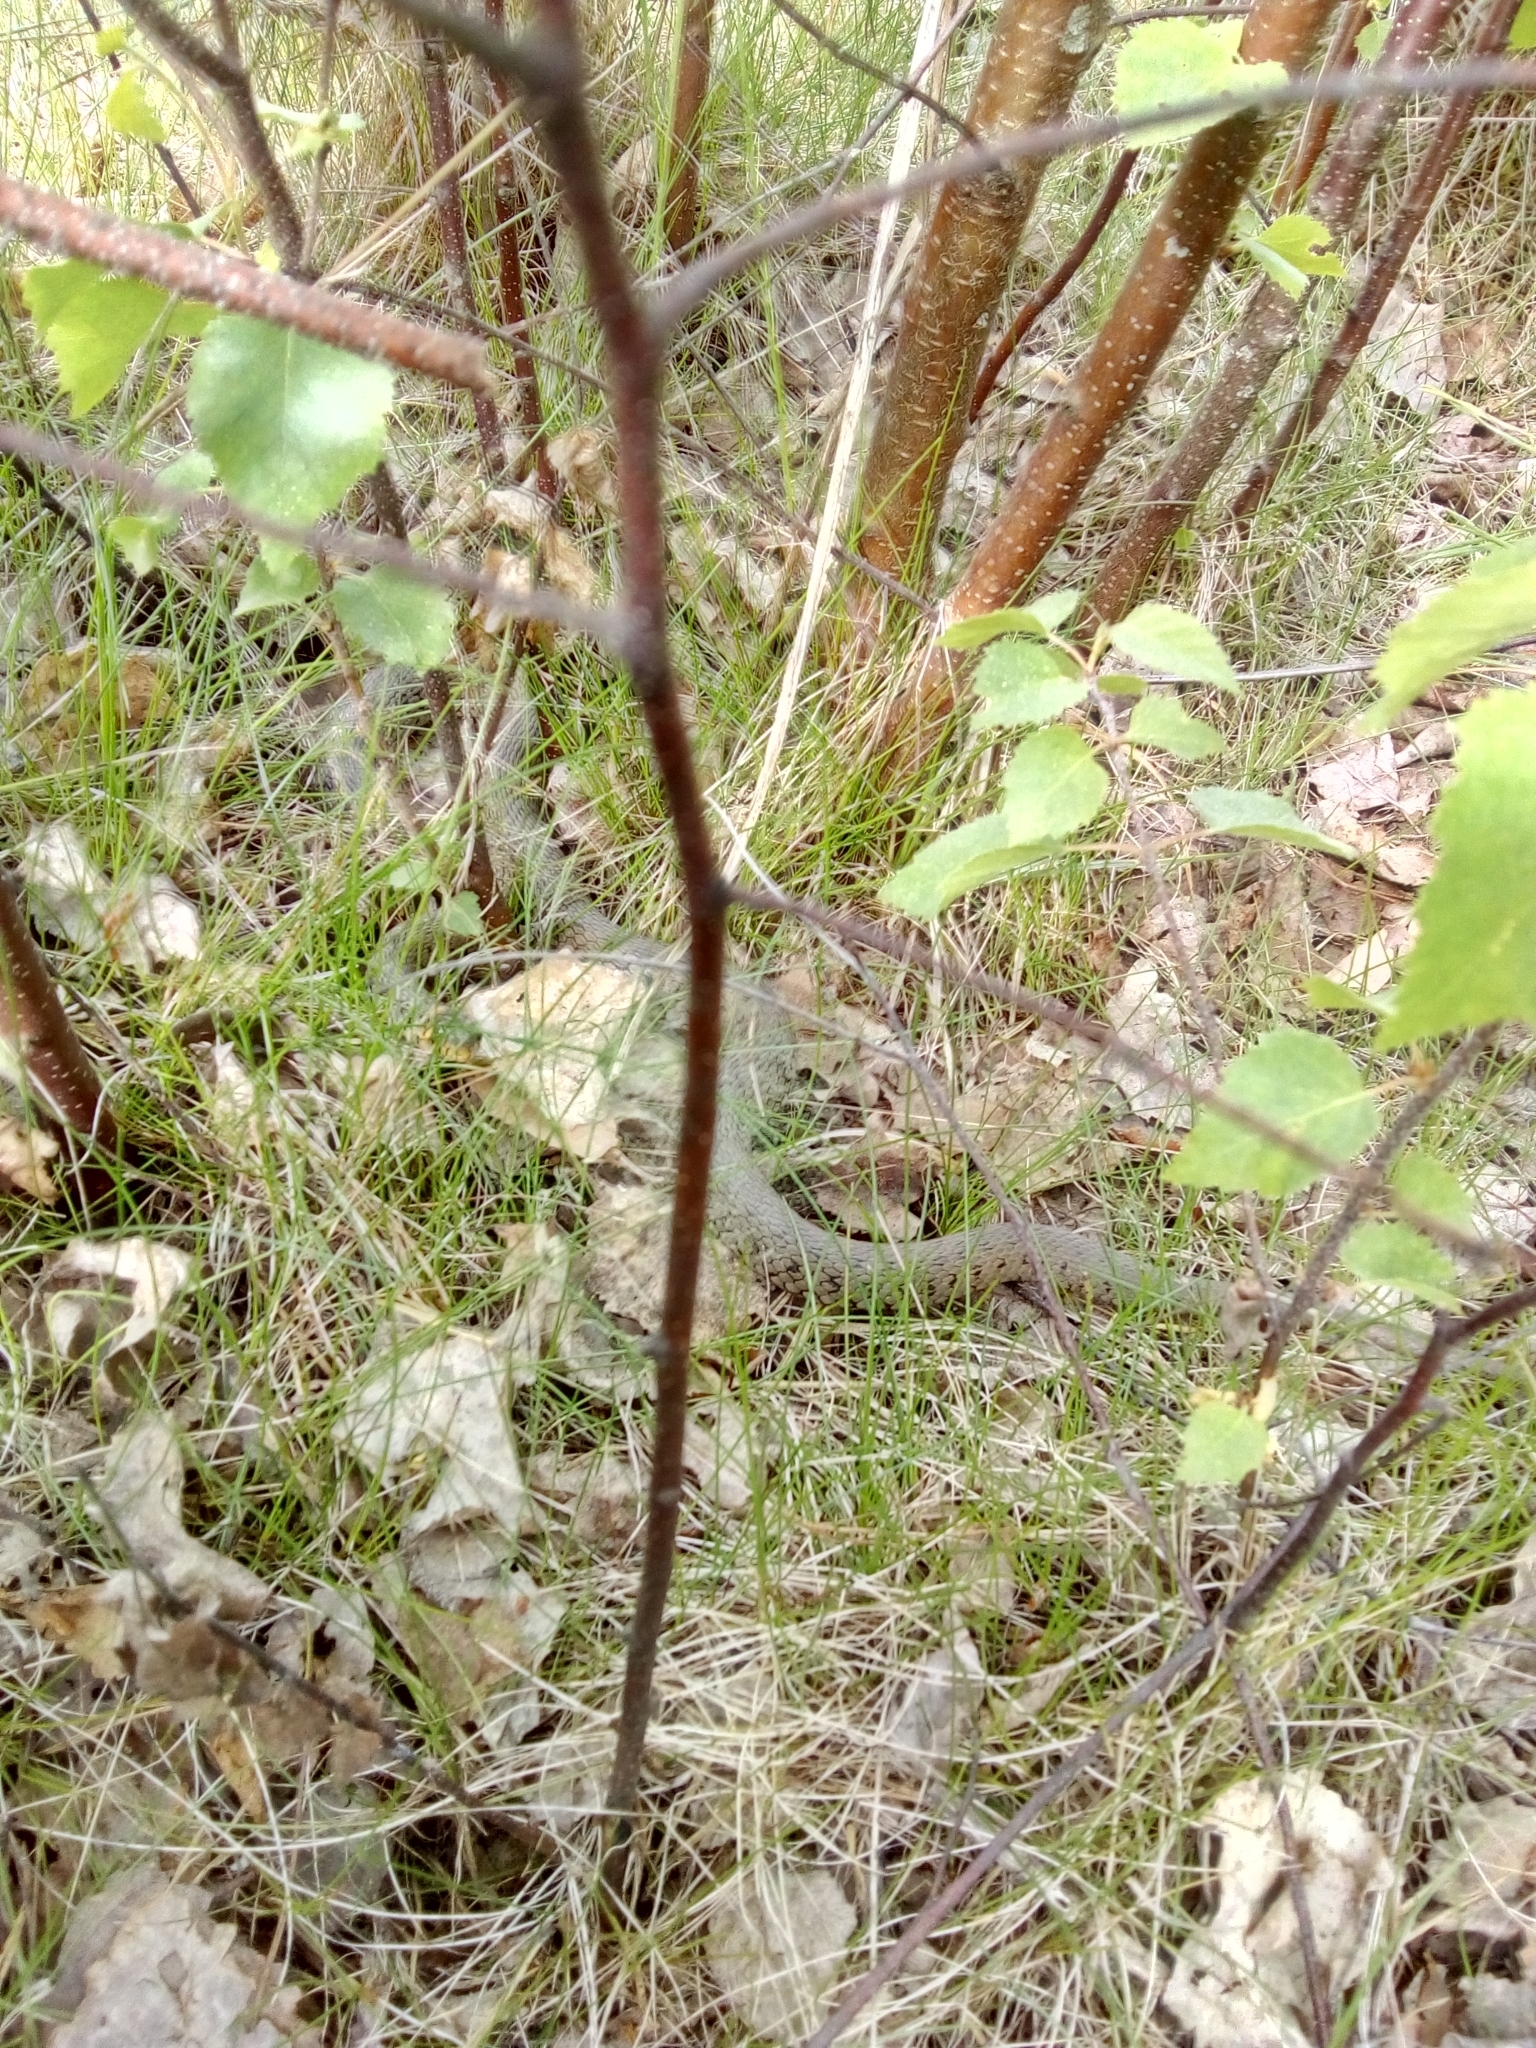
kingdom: Animalia
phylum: Chordata
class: Squamata
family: Colubridae
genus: Natrix
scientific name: Natrix natrix
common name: Grass snake
